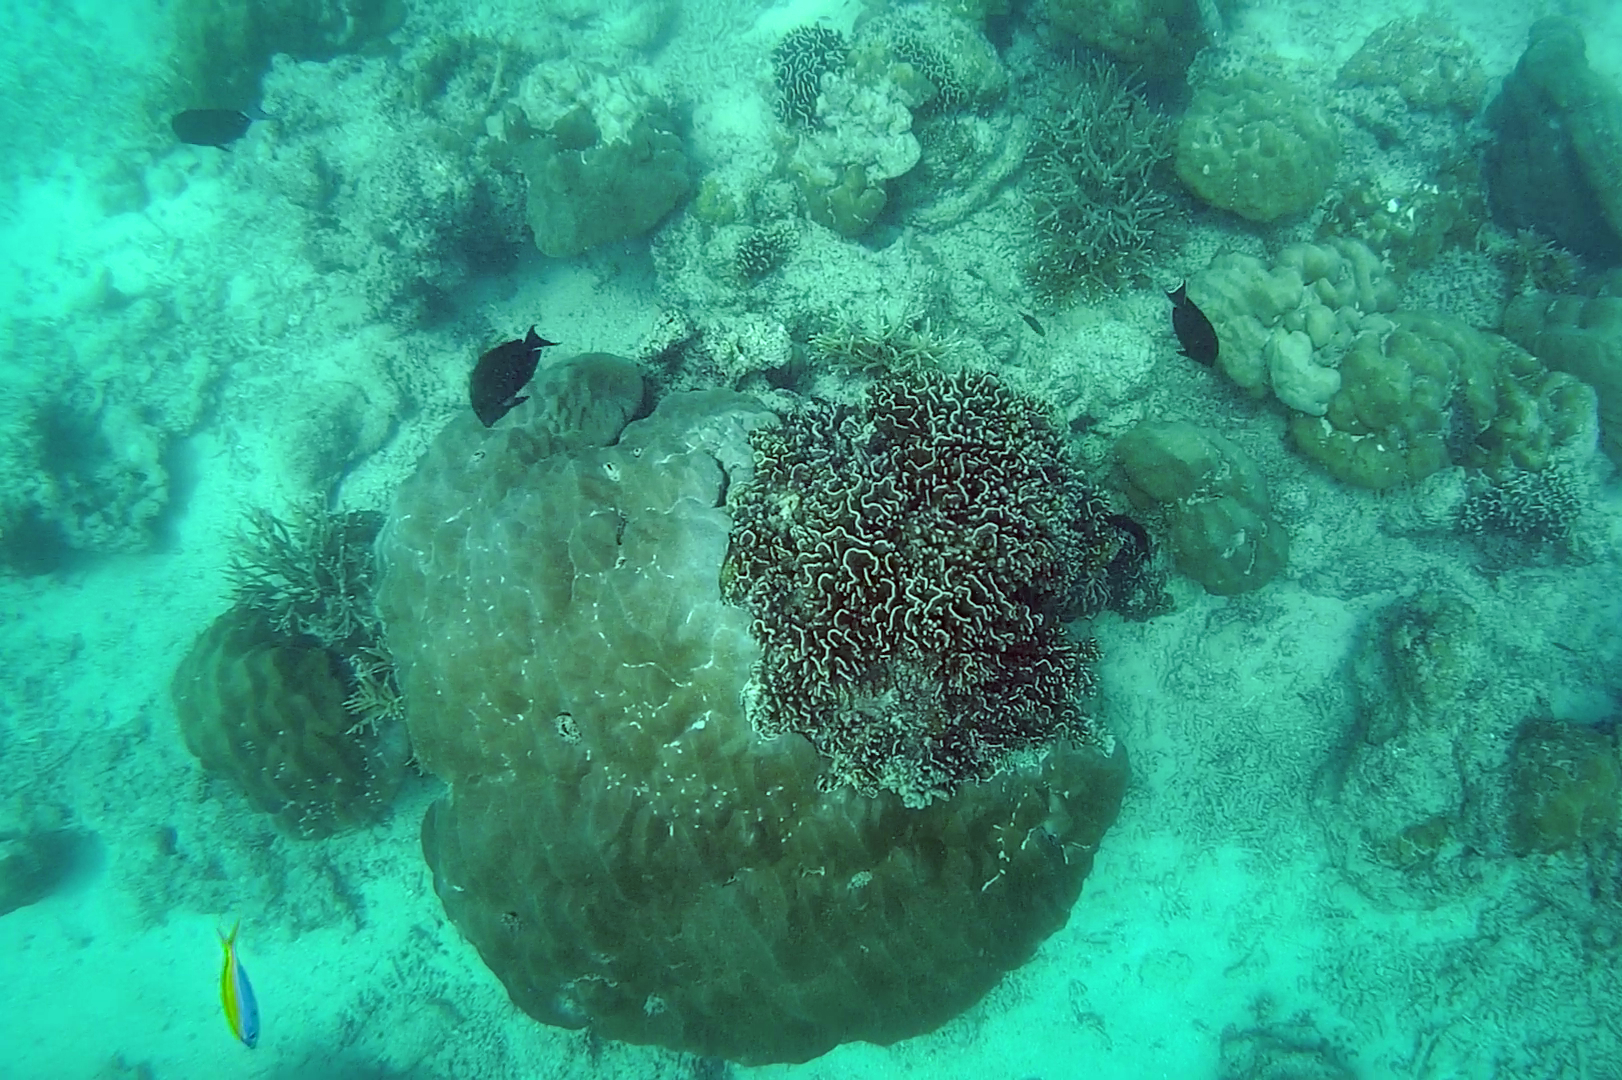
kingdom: Animalia
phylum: Chordata
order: Perciformes
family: Caesionidae
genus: Caesio
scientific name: Caesio xanthonota
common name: Yellowback fusilier
